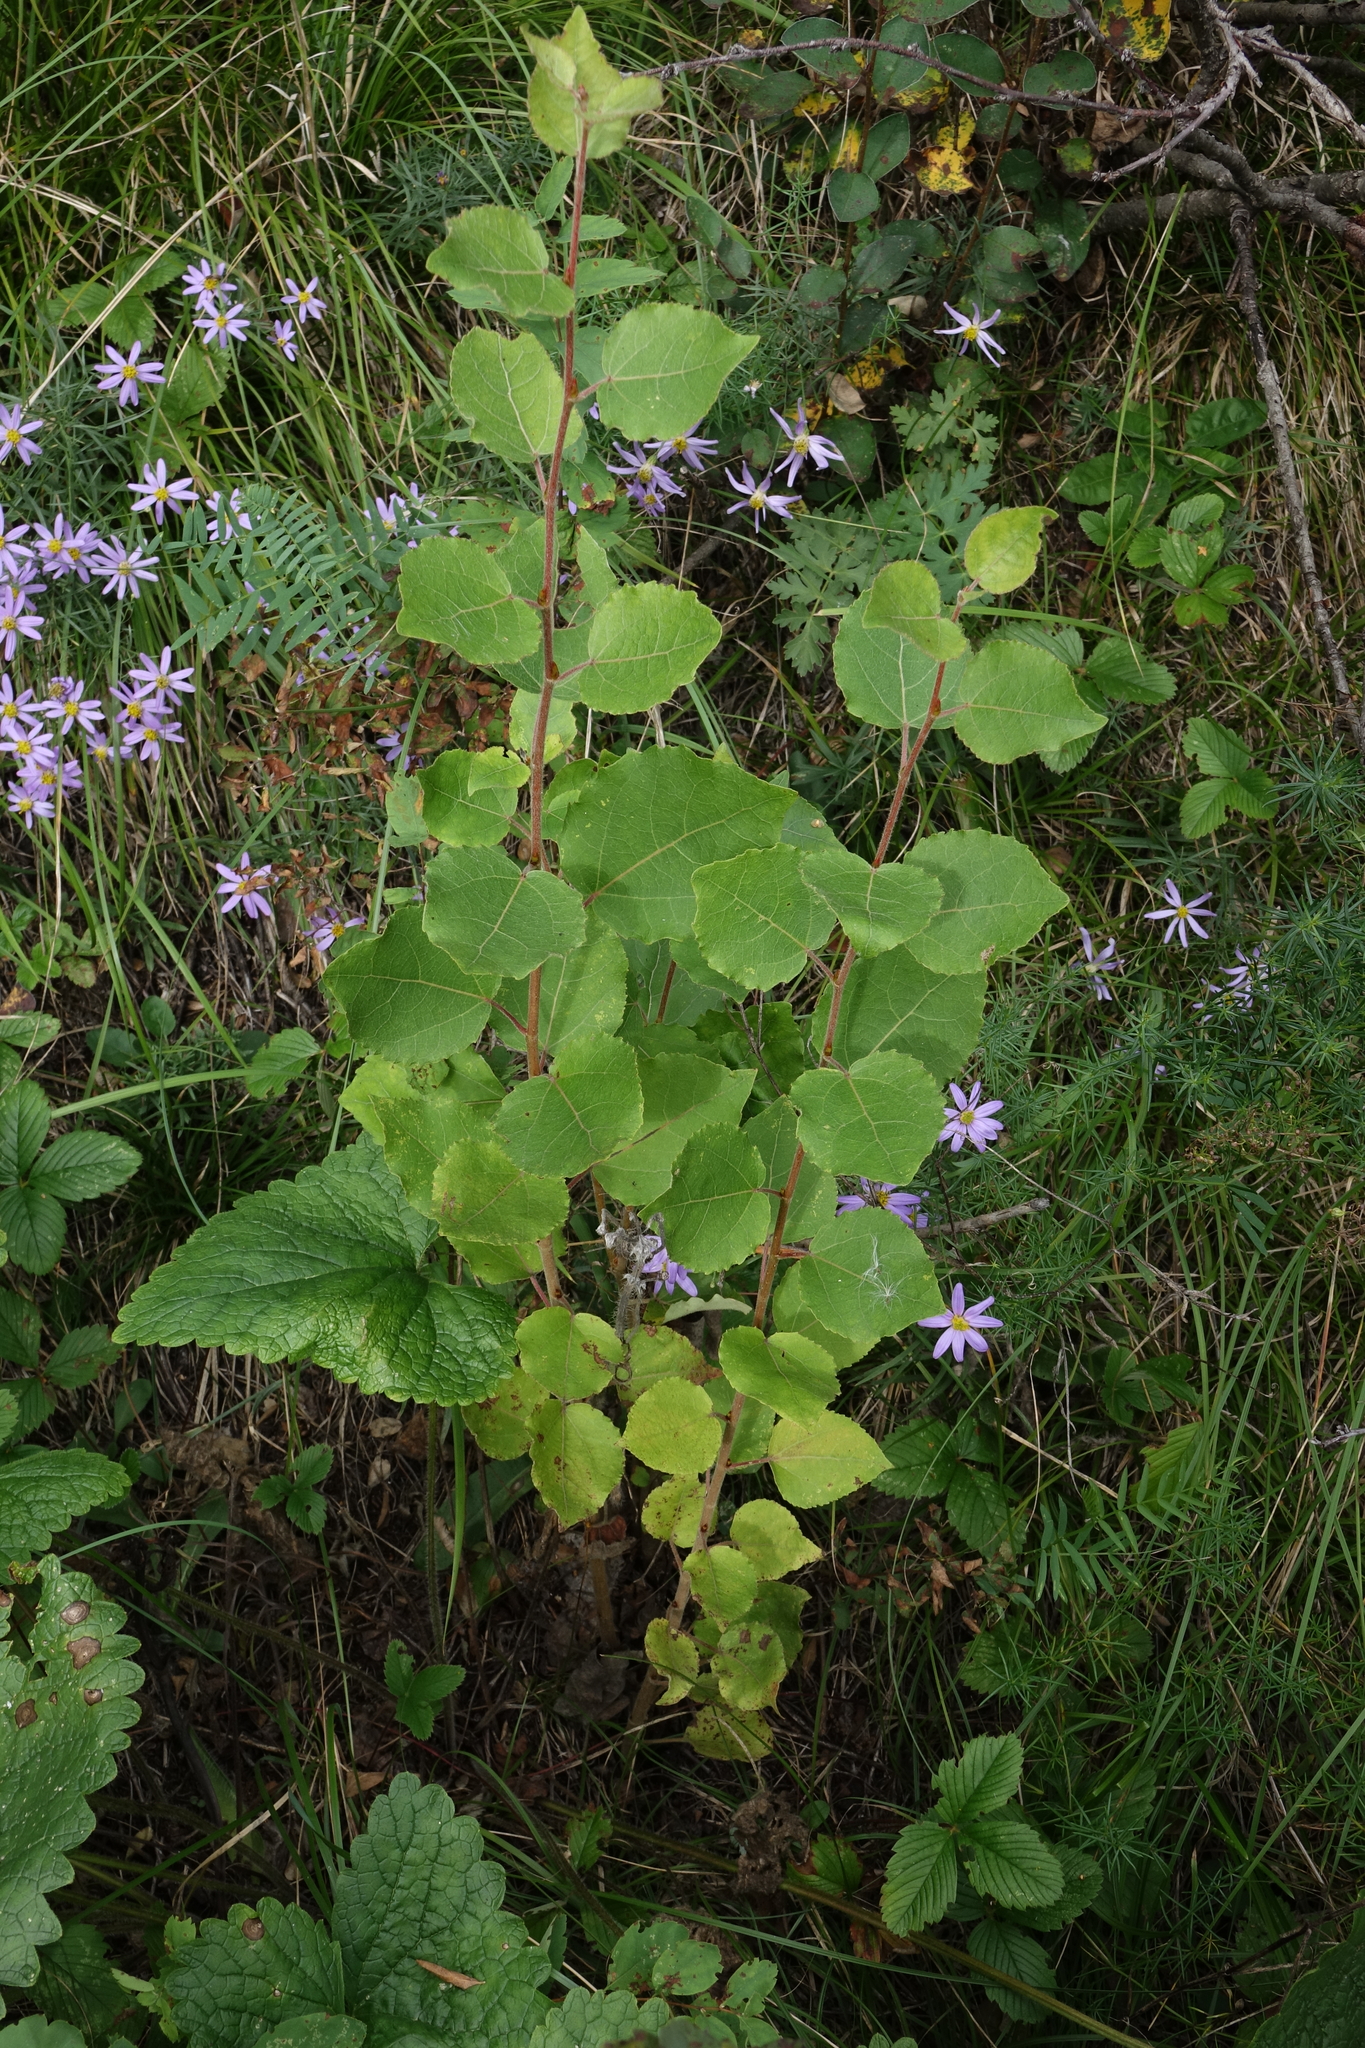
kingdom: Plantae
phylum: Tracheophyta
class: Magnoliopsida
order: Malpighiales
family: Salicaceae
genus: Populus
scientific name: Populus tremula
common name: European aspen
